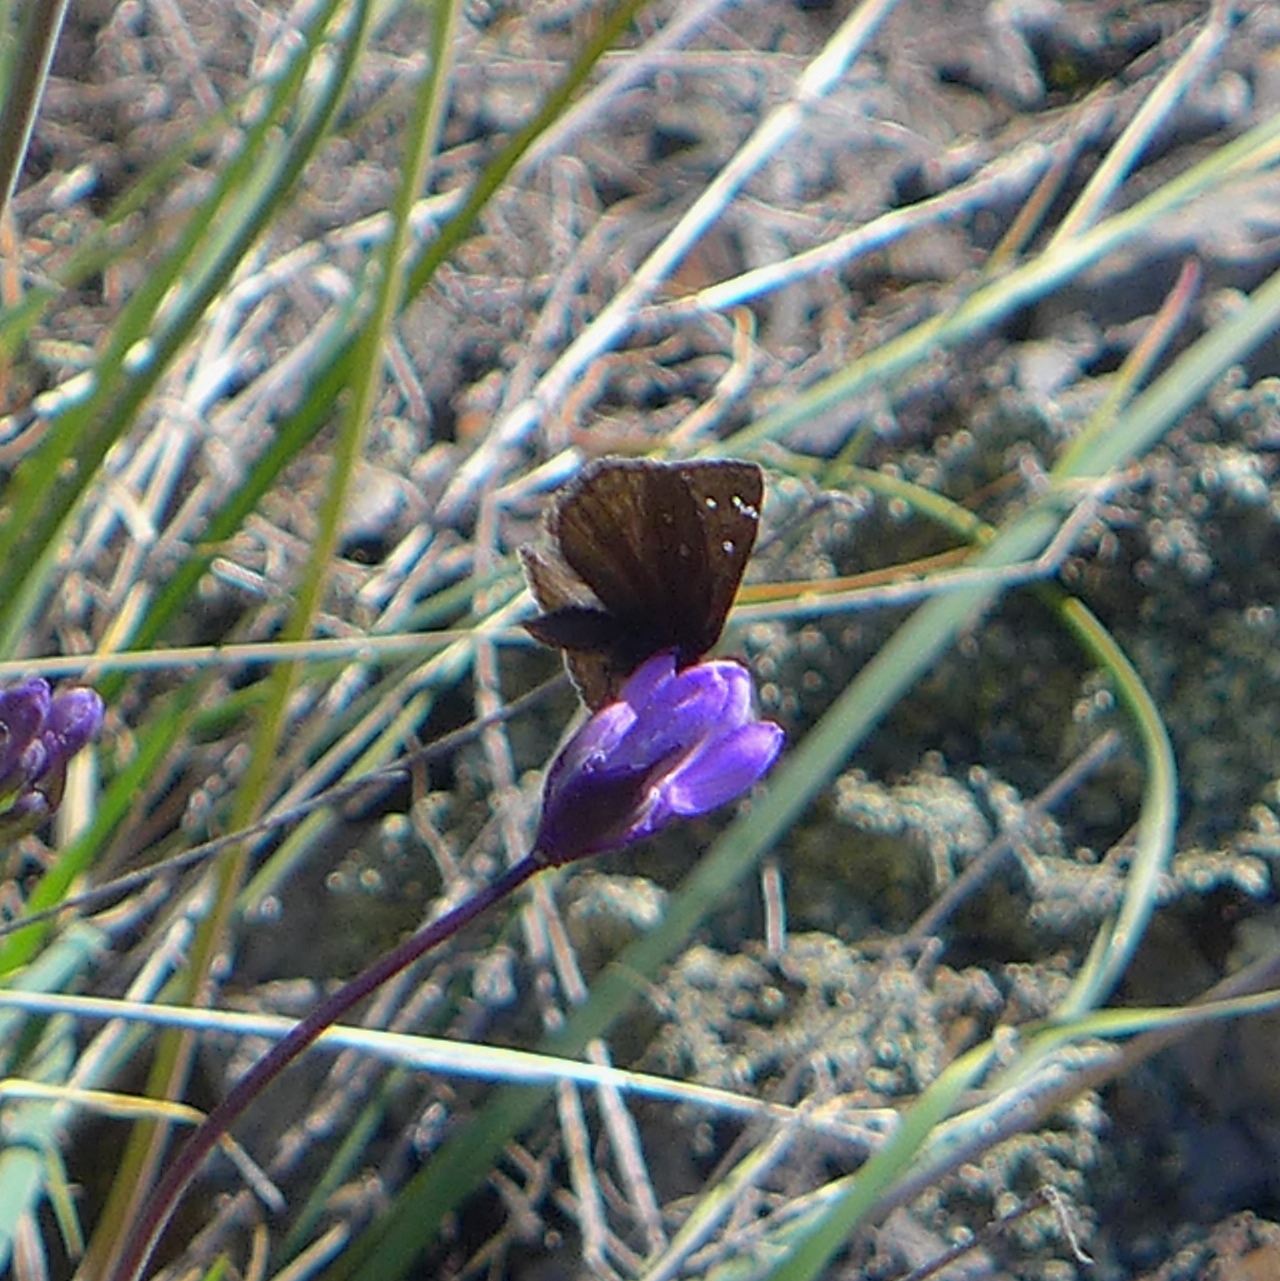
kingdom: Animalia
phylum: Arthropoda
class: Insecta
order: Lepidoptera
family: Hesperiidae
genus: Erynnis
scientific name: Erynnis propertius
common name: Propertius duskywing
